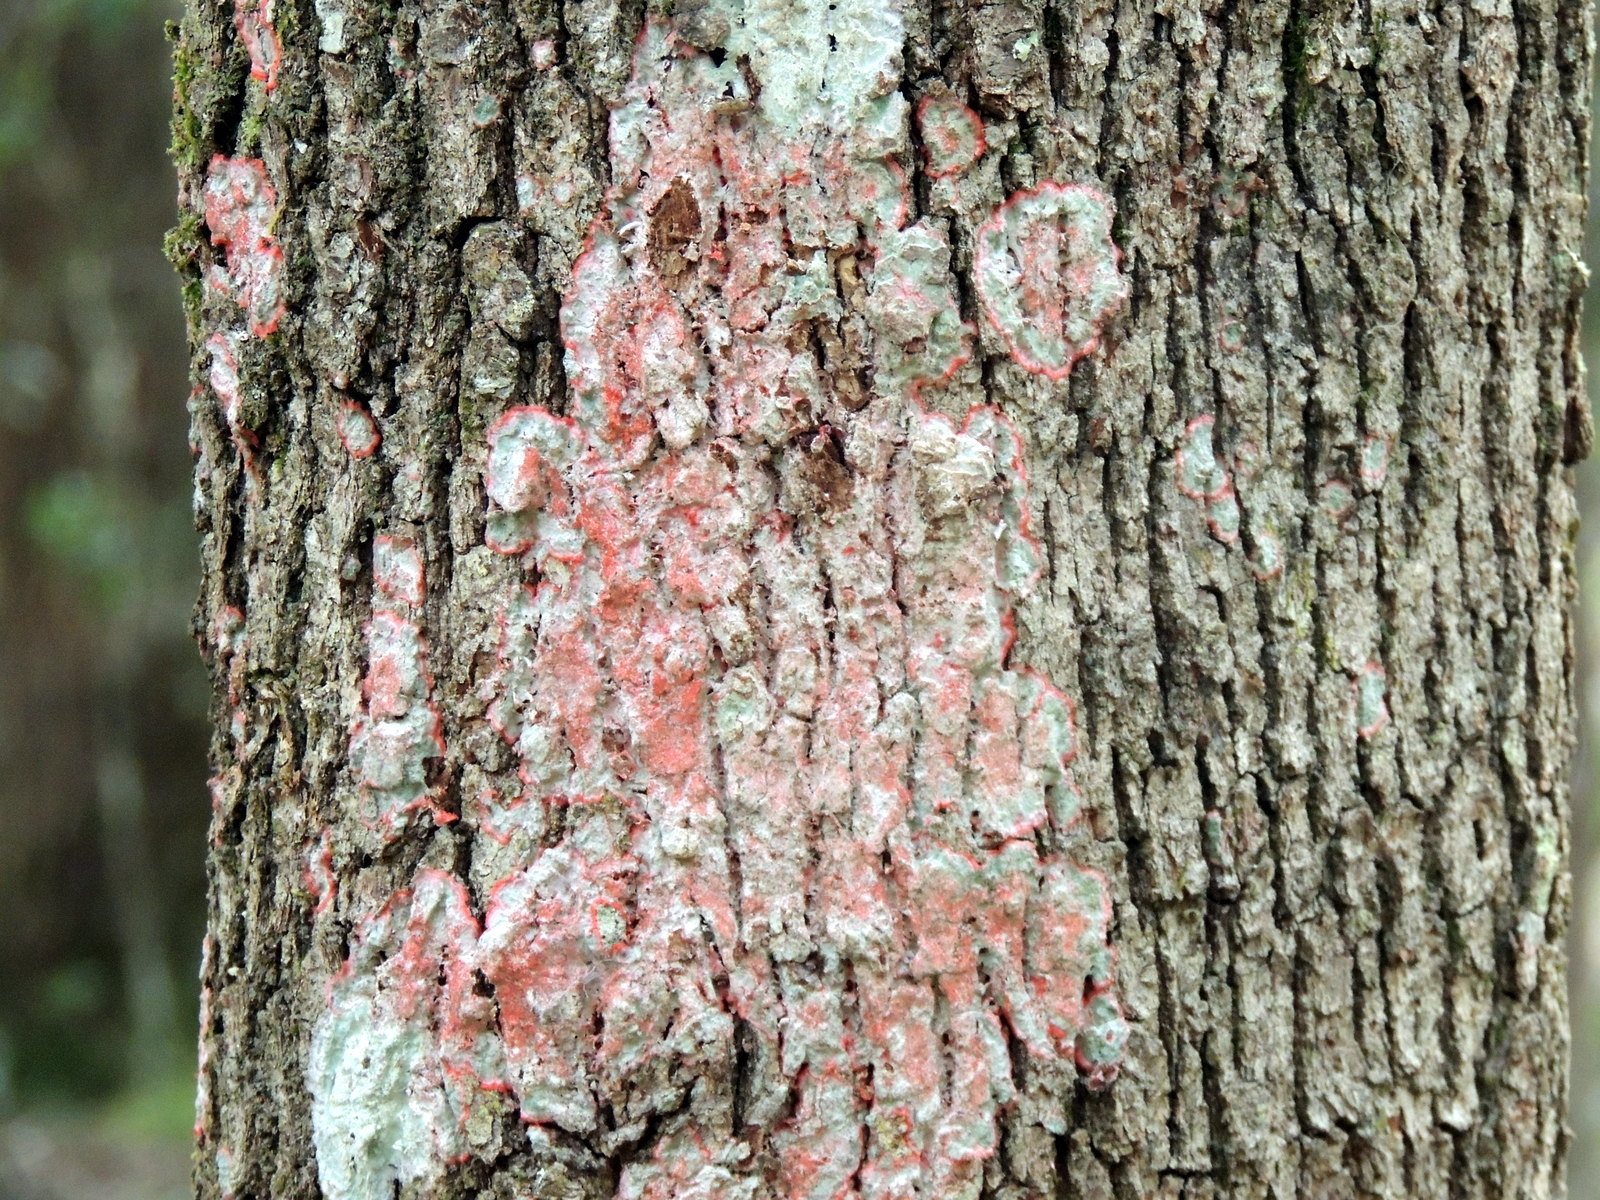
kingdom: Fungi
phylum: Ascomycota
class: Arthoniomycetes
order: Arthoniales
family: Arthoniaceae
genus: Herpothallon
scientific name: Herpothallon rubrocinctum
